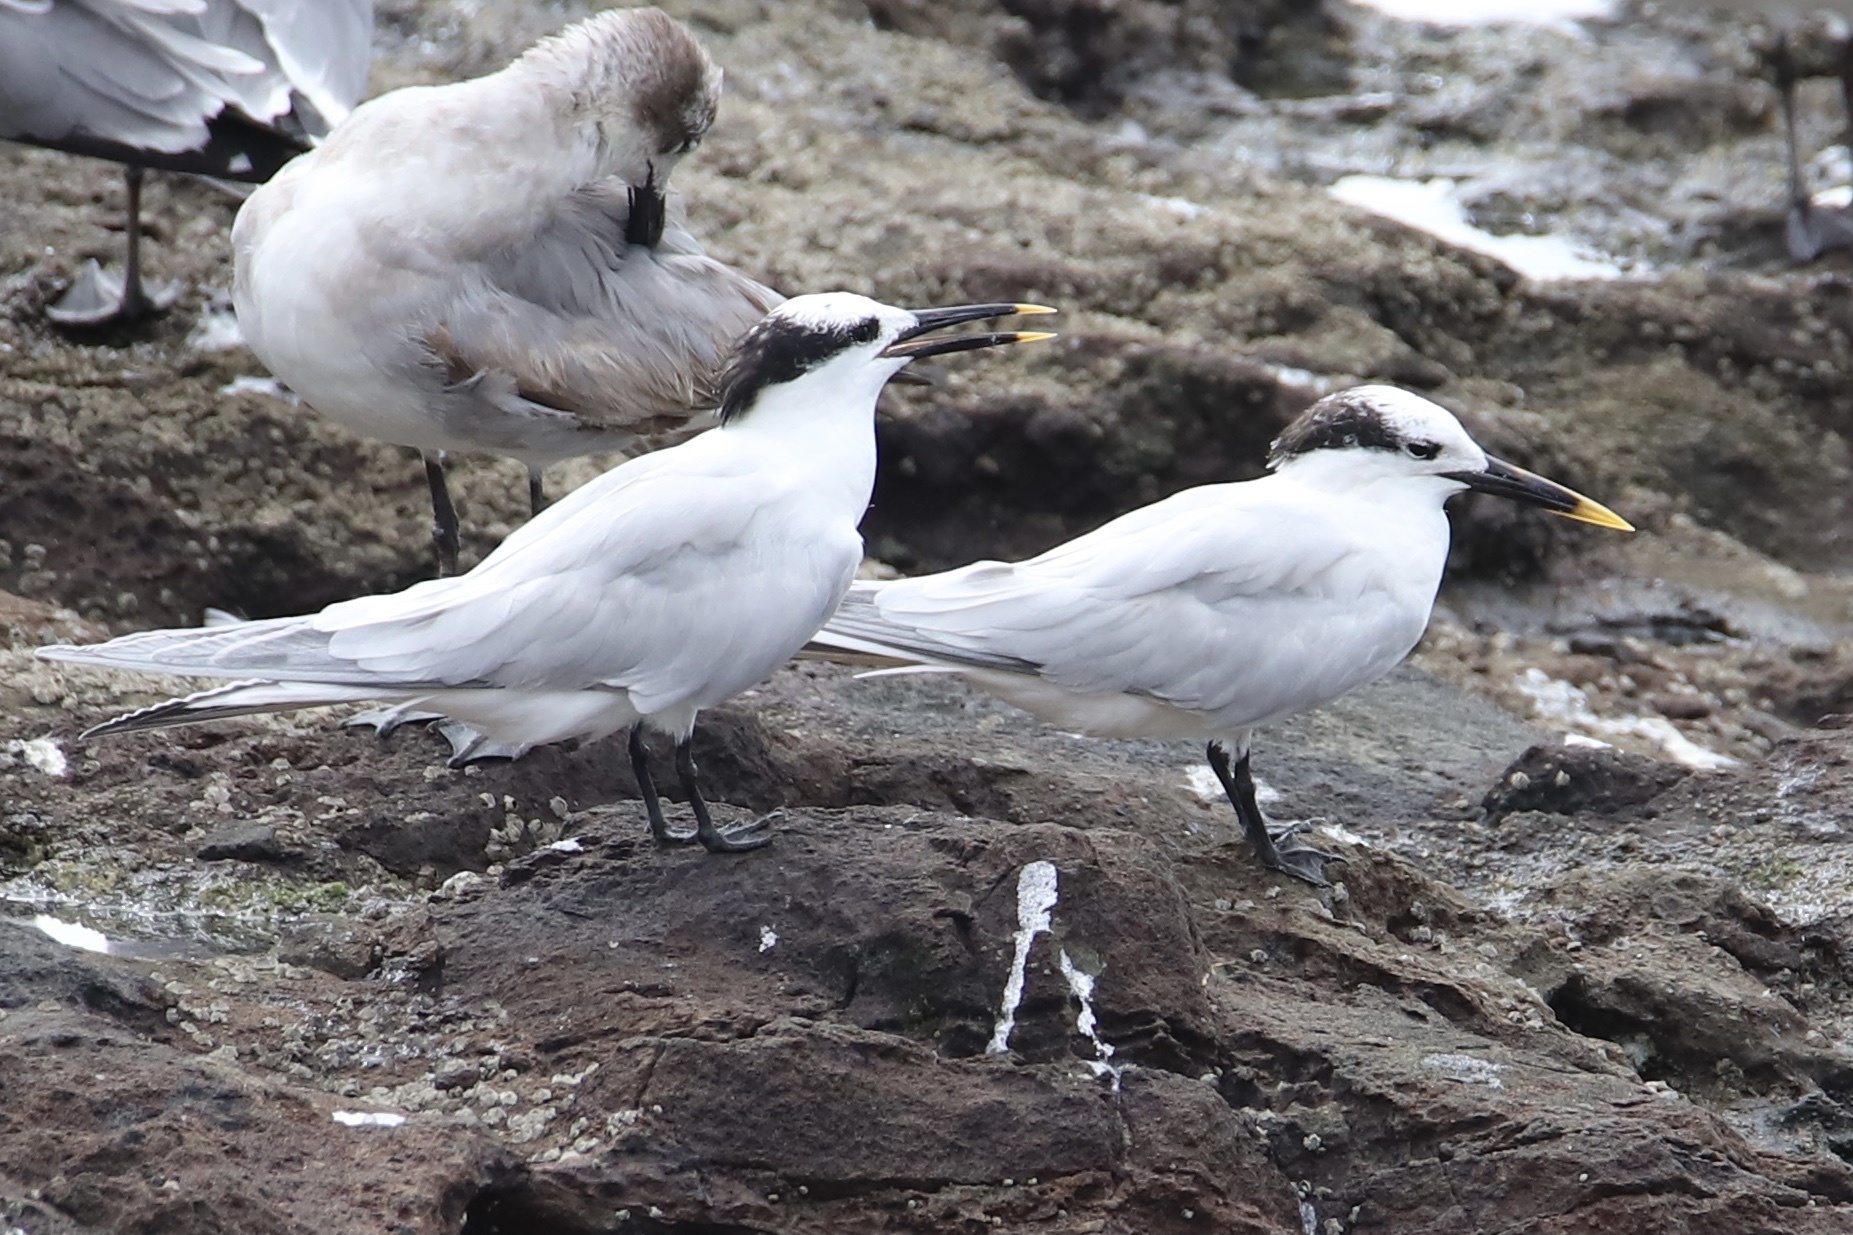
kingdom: Animalia
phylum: Chordata
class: Aves
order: Charadriiformes
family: Laridae
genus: Thalasseus
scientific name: Thalasseus sandvicensis
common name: Sandwich tern
